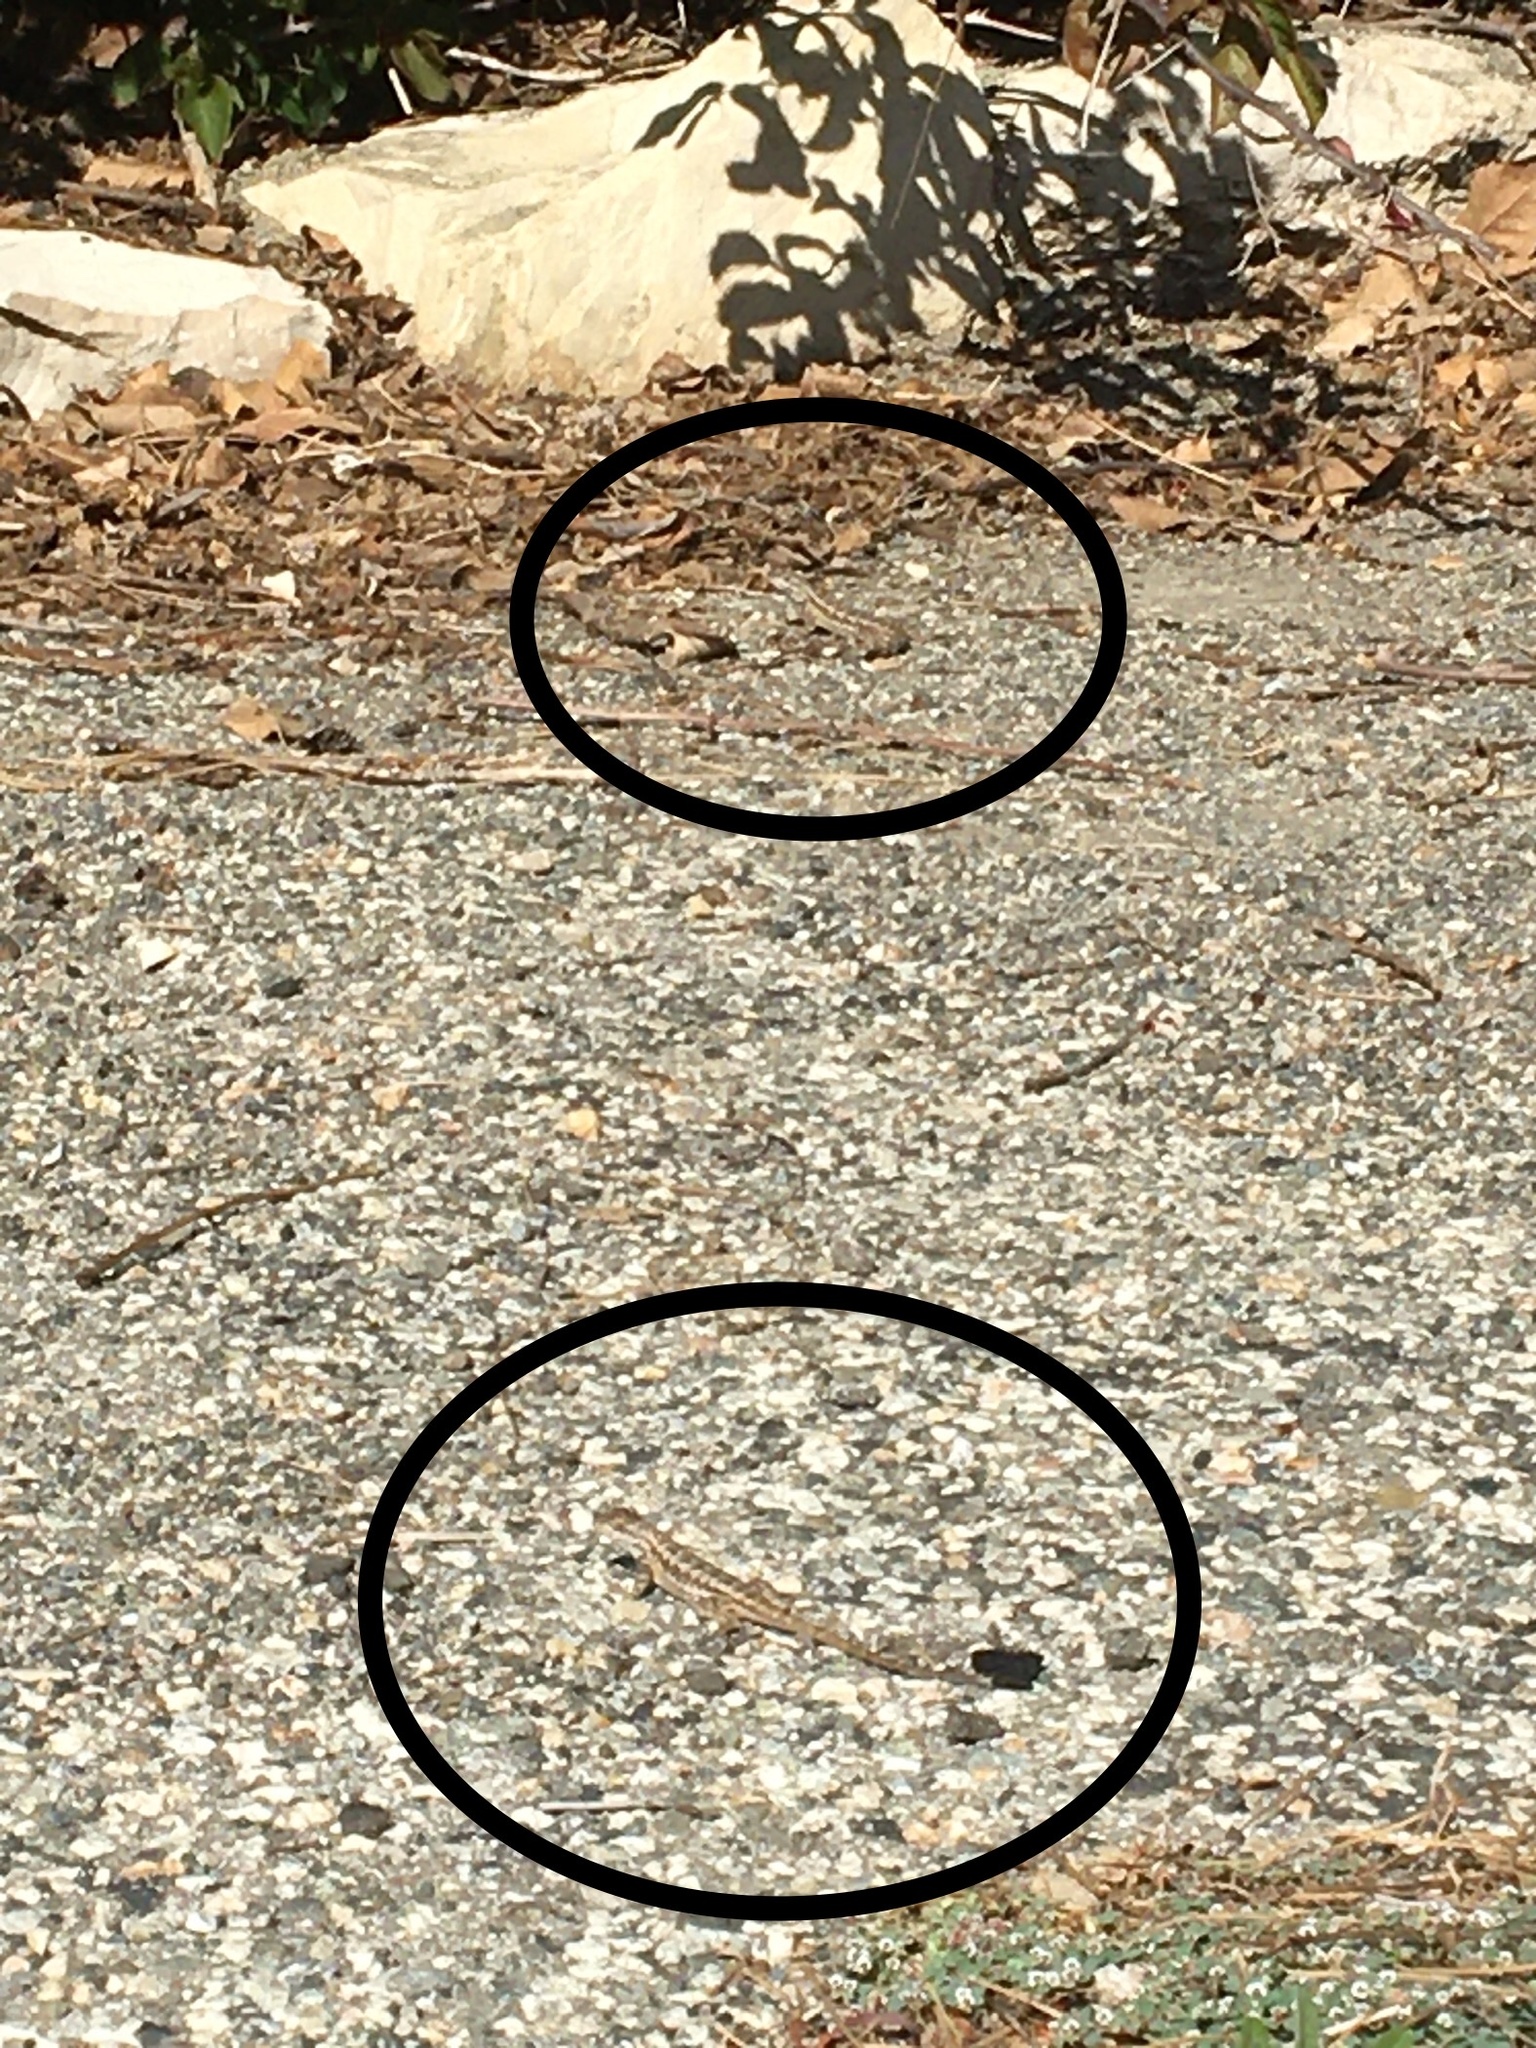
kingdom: Animalia
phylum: Chordata
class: Squamata
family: Phrynosomatidae
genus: Sceloporus
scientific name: Sceloporus occidentalis
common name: Western fence lizard
